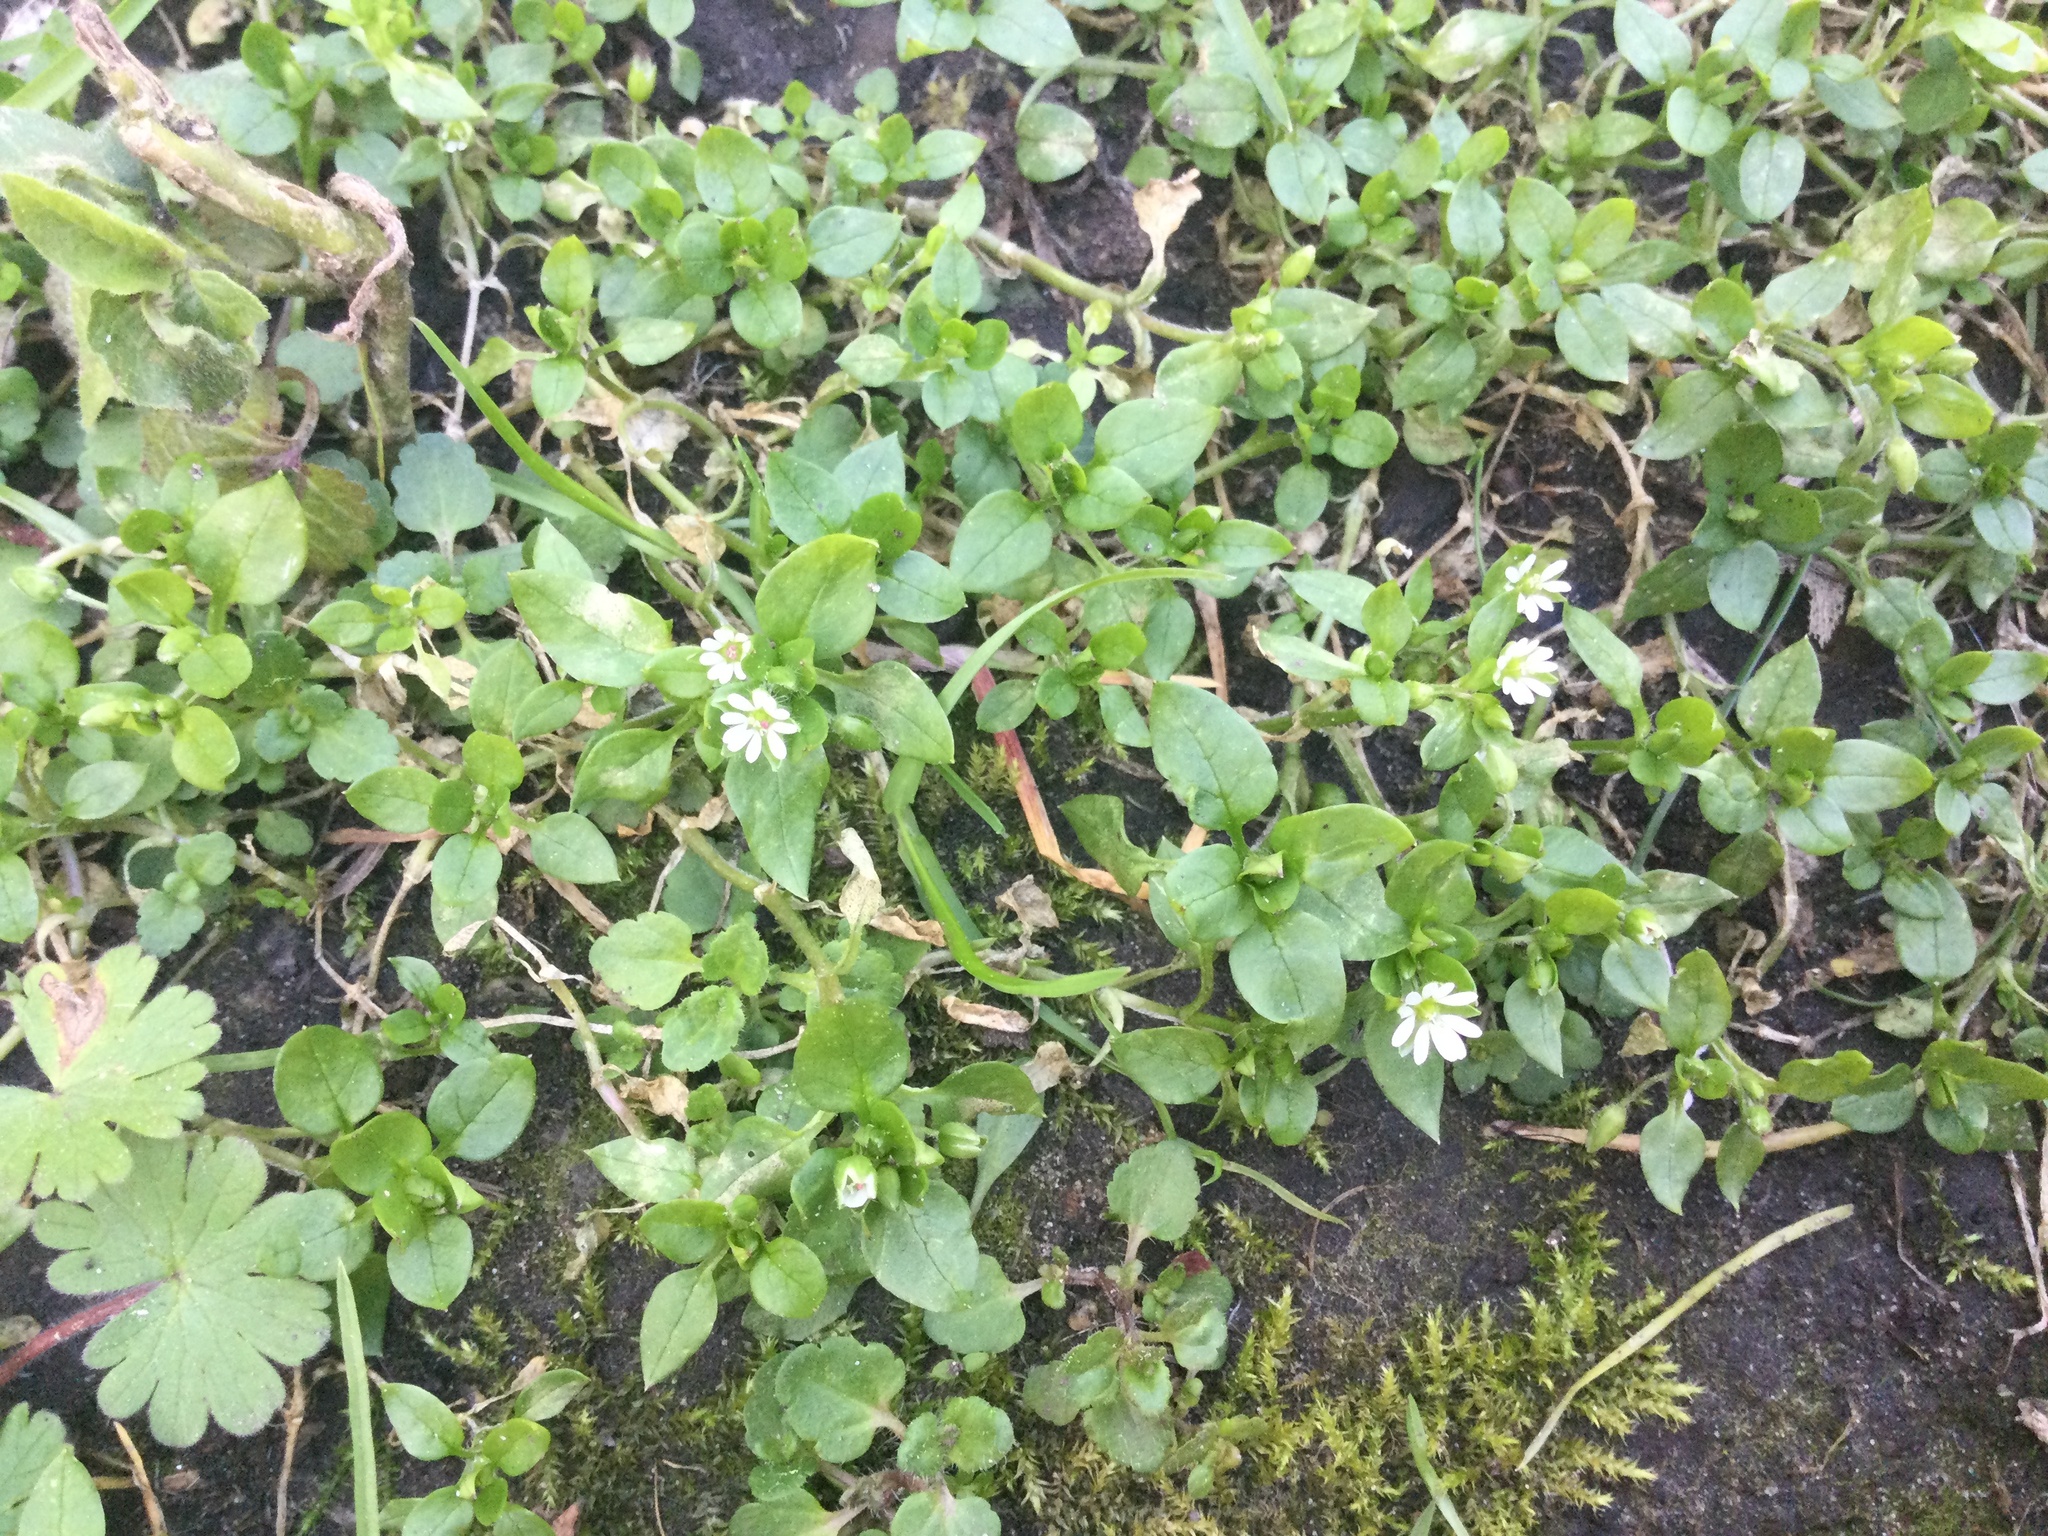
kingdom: Plantae
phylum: Tracheophyta
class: Magnoliopsida
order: Caryophyllales
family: Caryophyllaceae
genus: Stellaria
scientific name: Stellaria media
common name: Common chickweed
